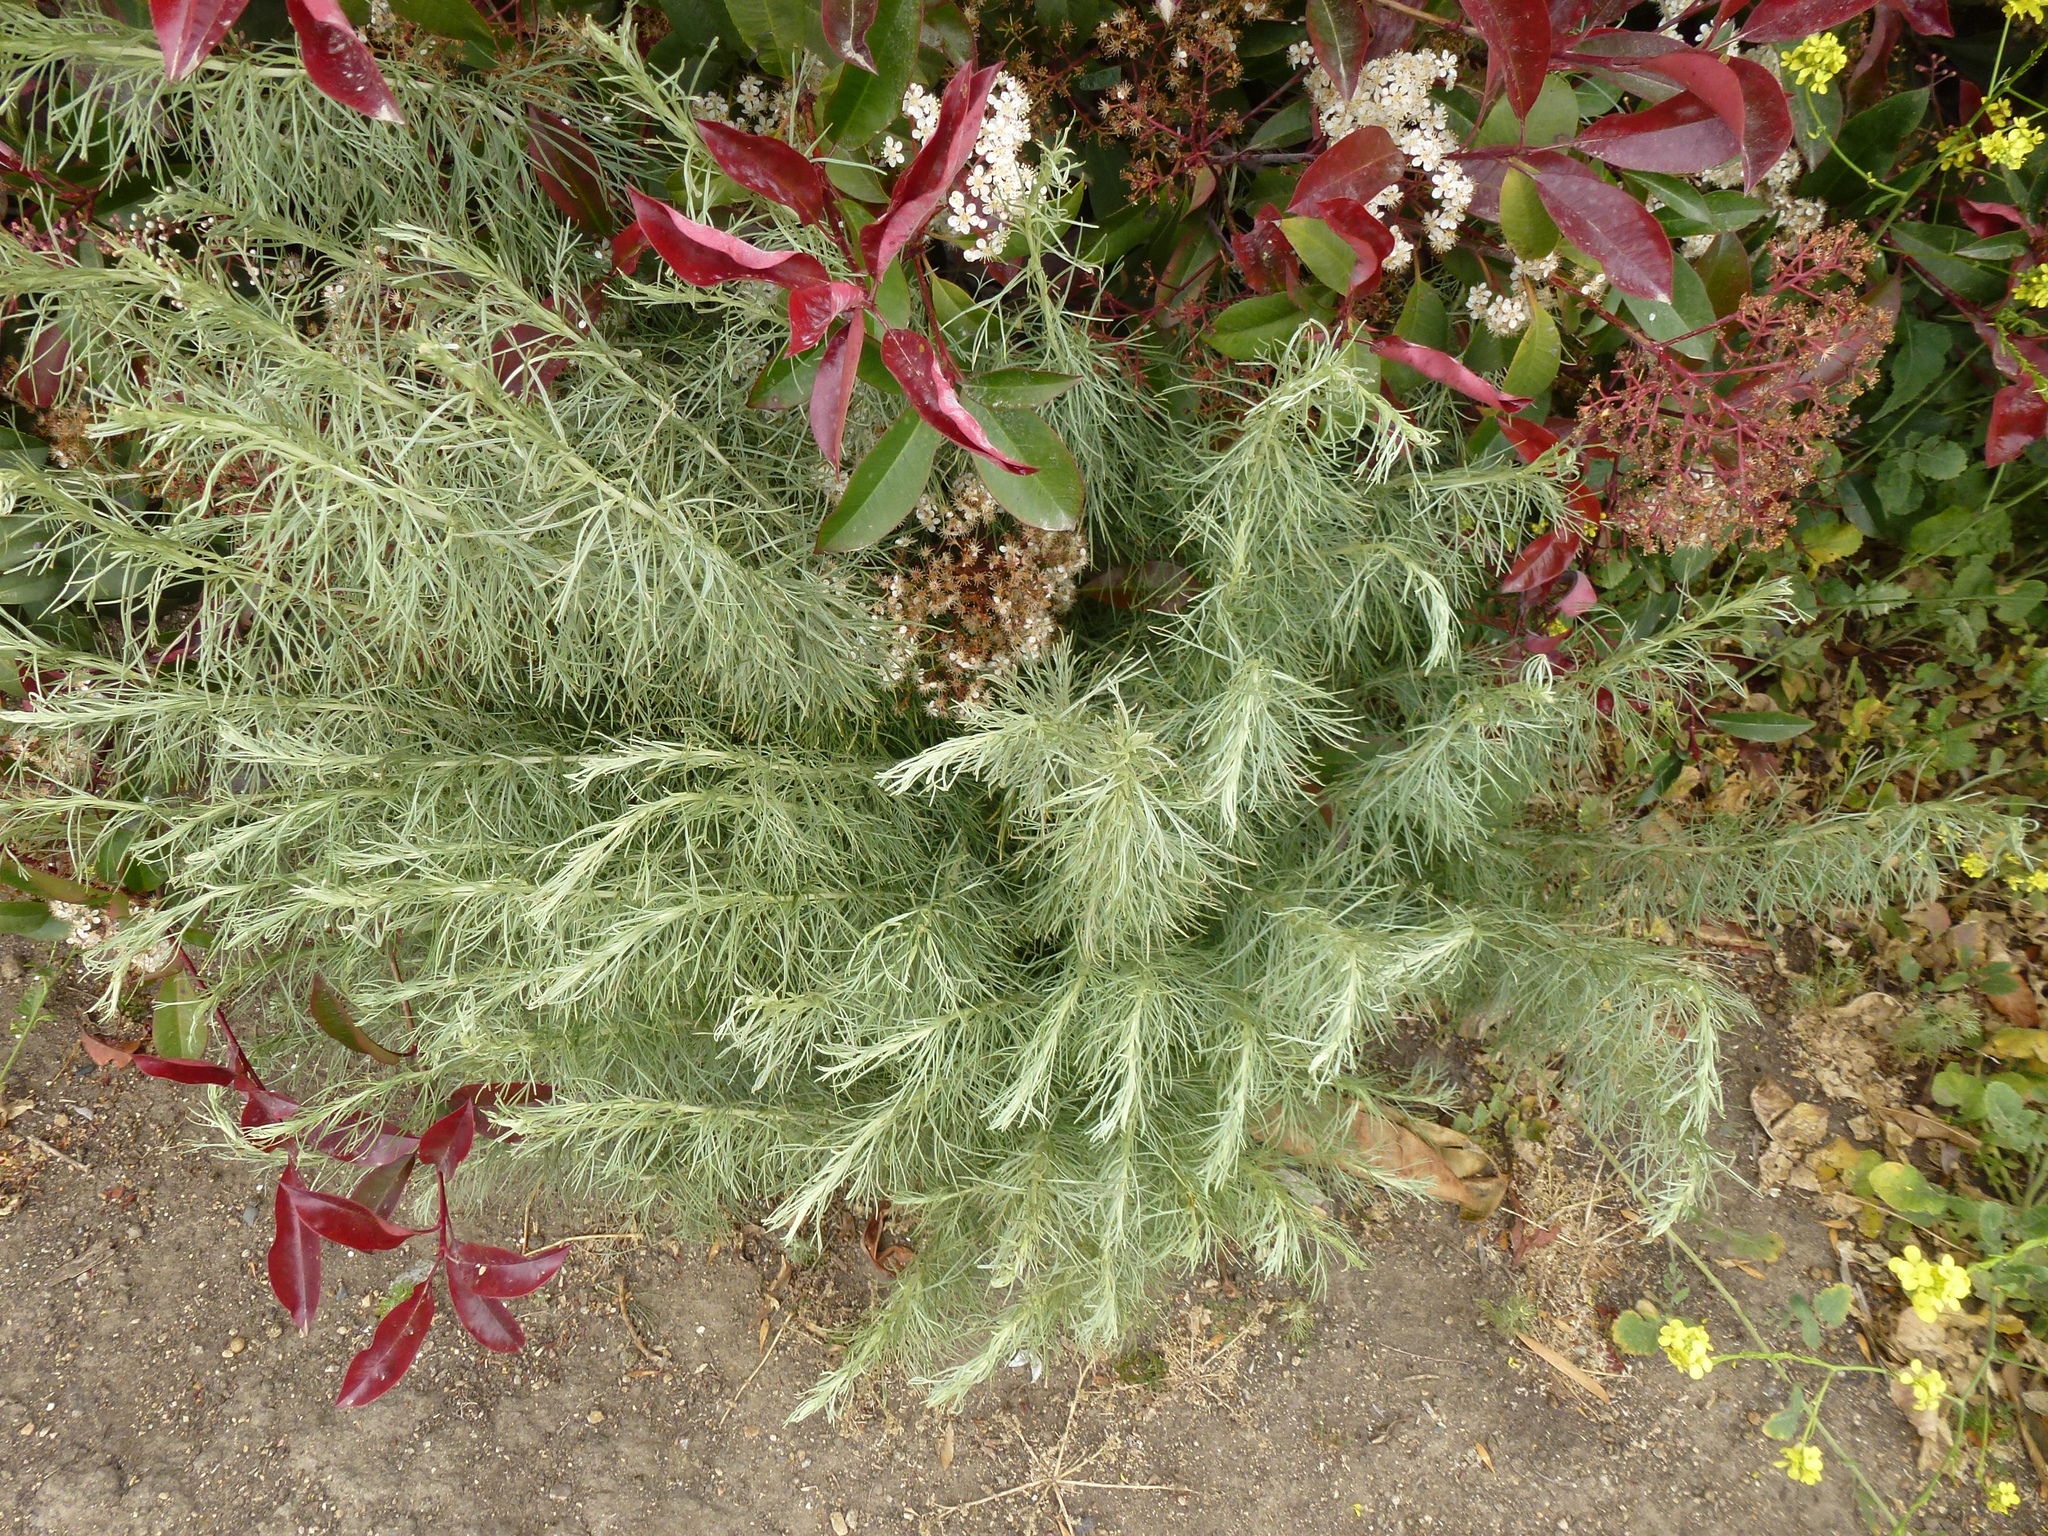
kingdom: Plantae
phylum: Tracheophyta
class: Magnoliopsida
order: Asterales
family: Asteraceae
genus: Artemisia
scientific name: Artemisia californica
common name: California sagebrush
